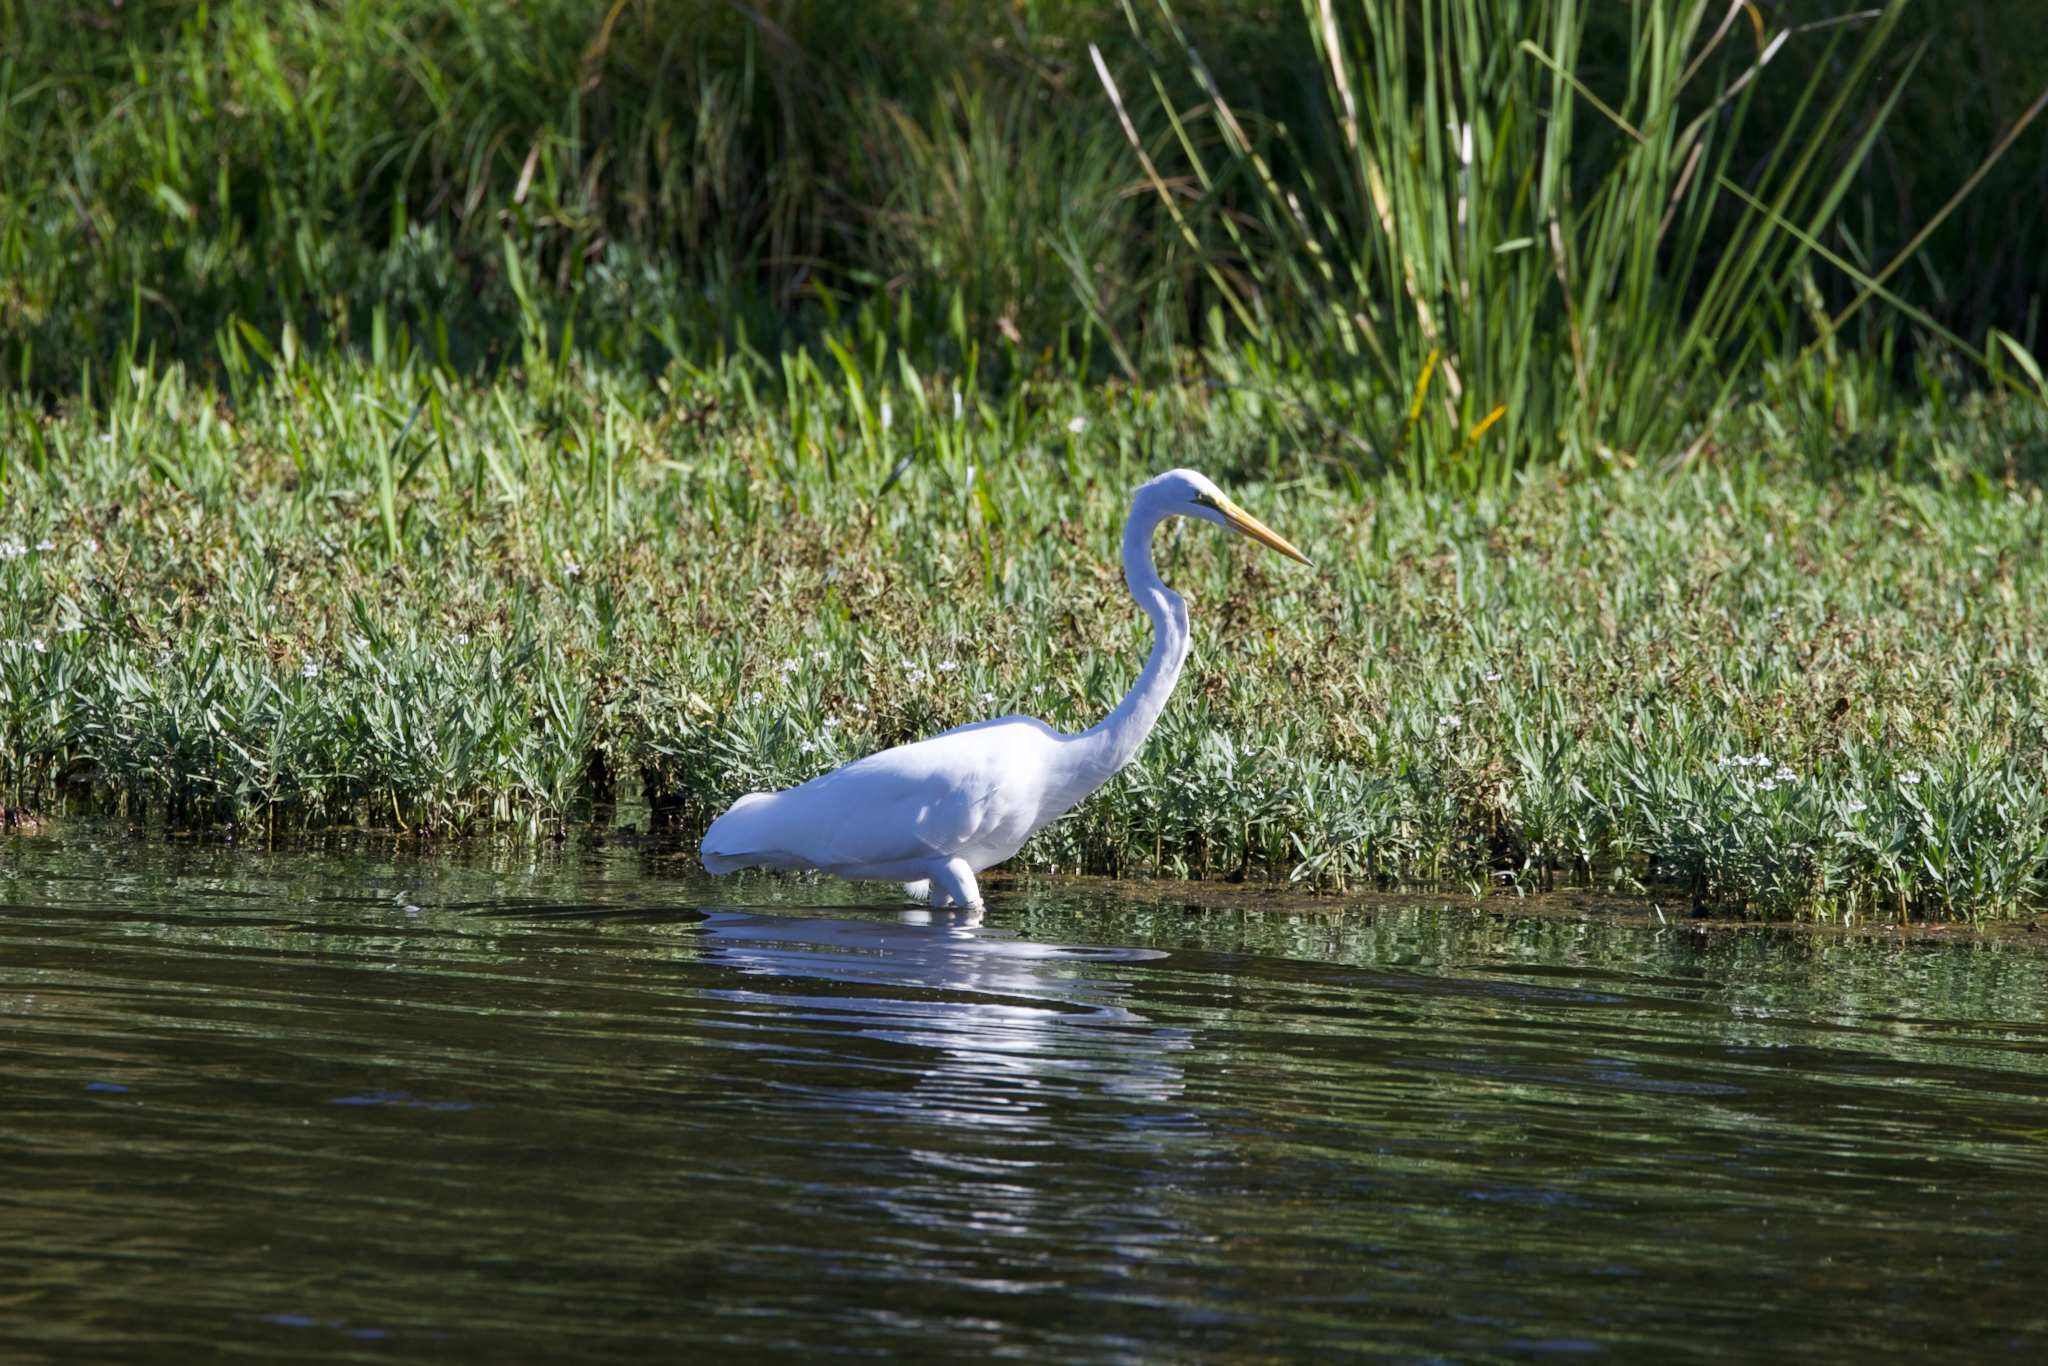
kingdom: Animalia
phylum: Chordata
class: Aves
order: Pelecaniformes
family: Ardeidae
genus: Ardea
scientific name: Ardea alba
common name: Great egret
